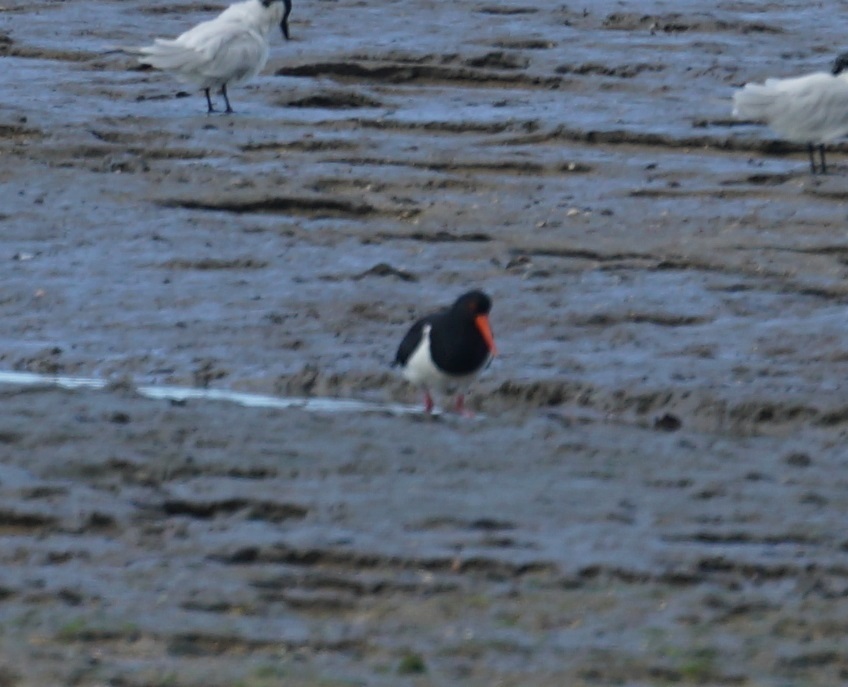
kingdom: Animalia
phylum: Chordata
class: Aves
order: Charadriiformes
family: Haematopodidae
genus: Haematopus
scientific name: Haematopus longirostris
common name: Pied oystercatcher
